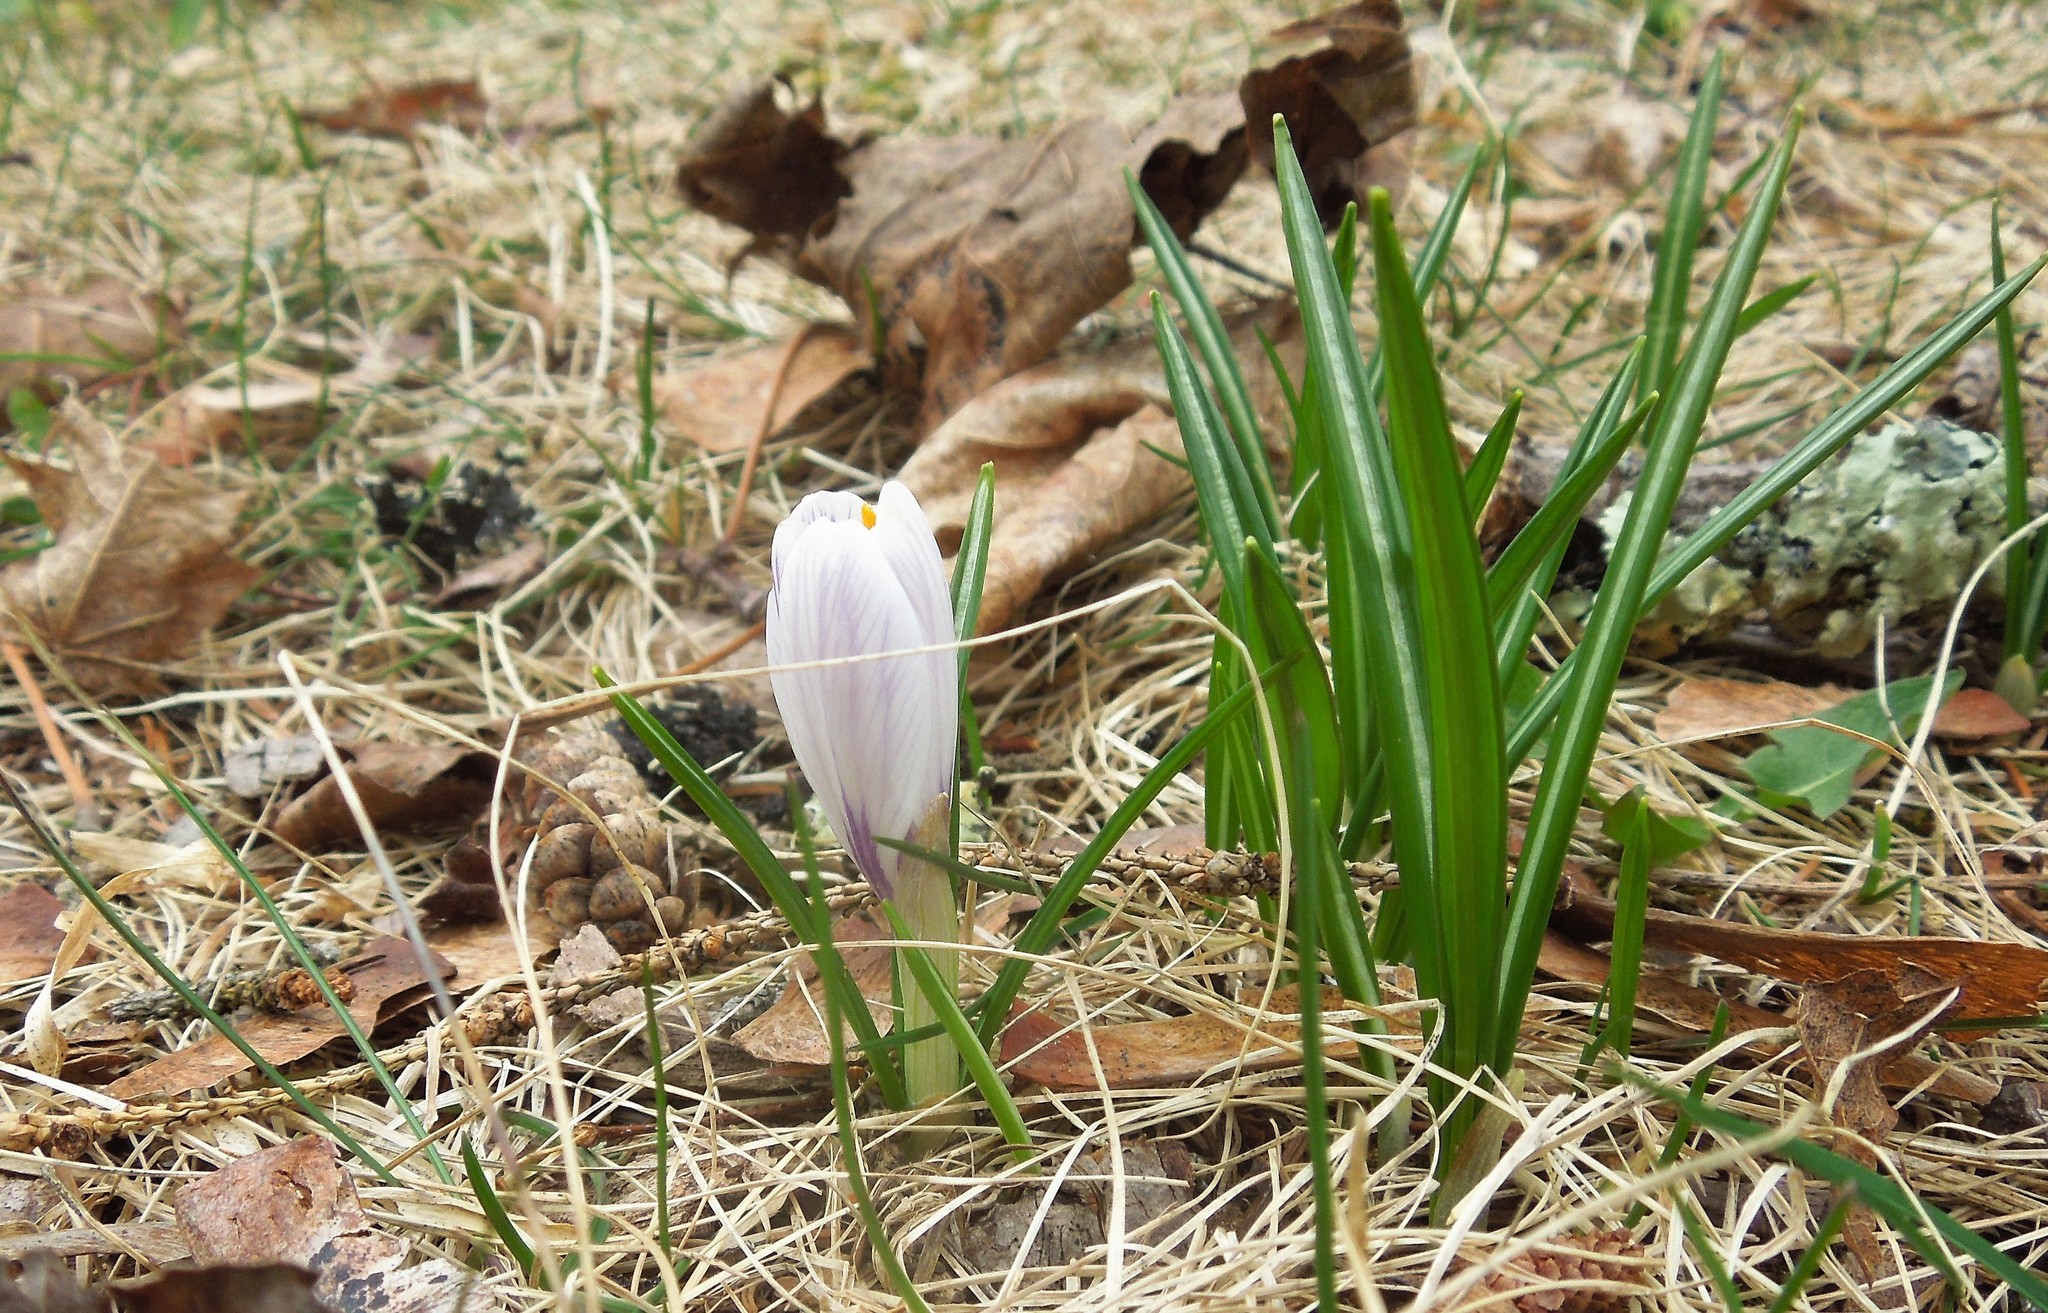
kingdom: Plantae
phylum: Tracheophyta
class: Liliopsida
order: Asparagales
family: Iridaceae
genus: Crocus
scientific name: Crocus
